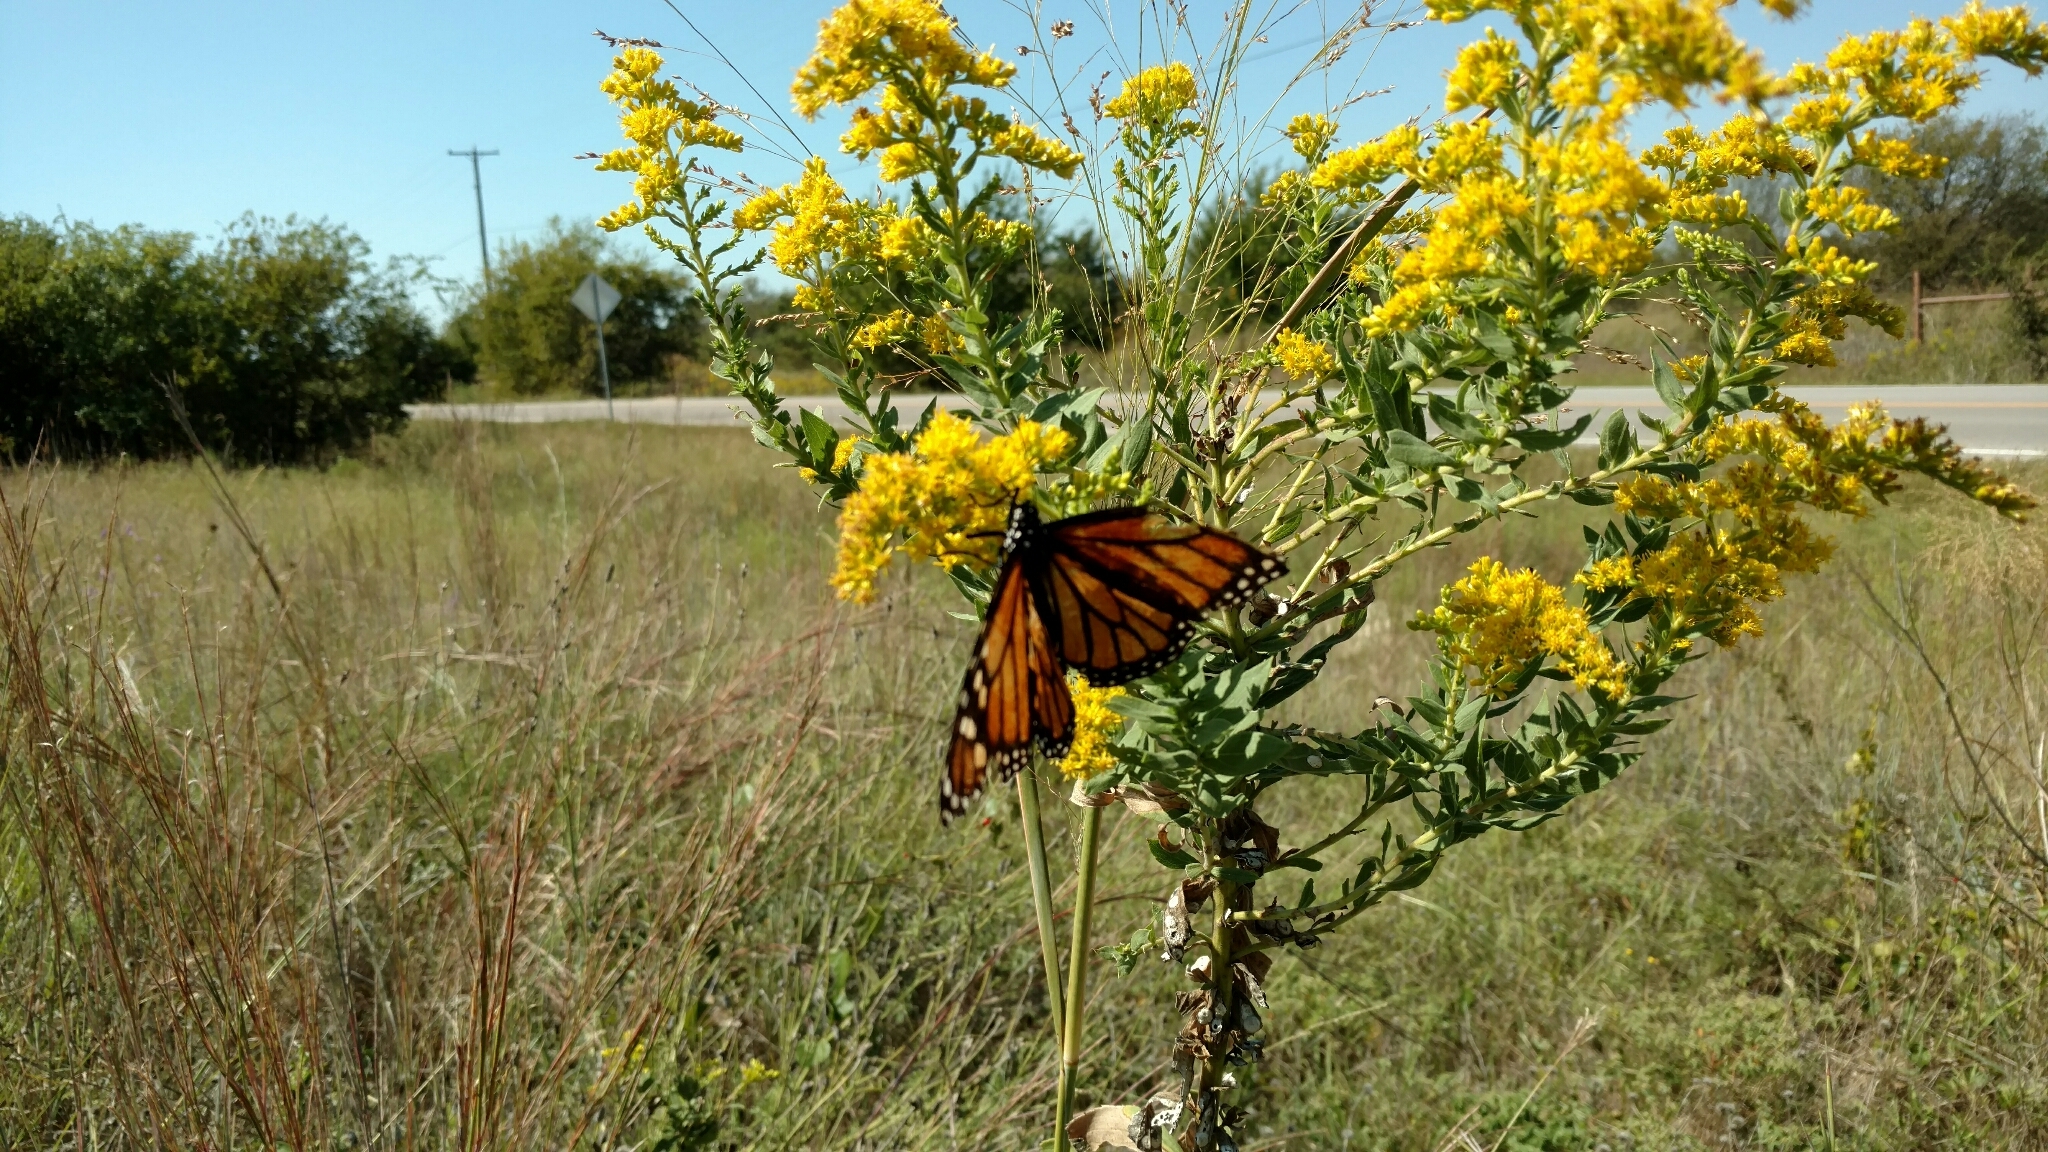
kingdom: Animalia
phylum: Arthropoda
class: Insecta
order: Lepidoptera
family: Nymphalidae
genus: Danaus
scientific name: Danaus plexippus
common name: Monarch
